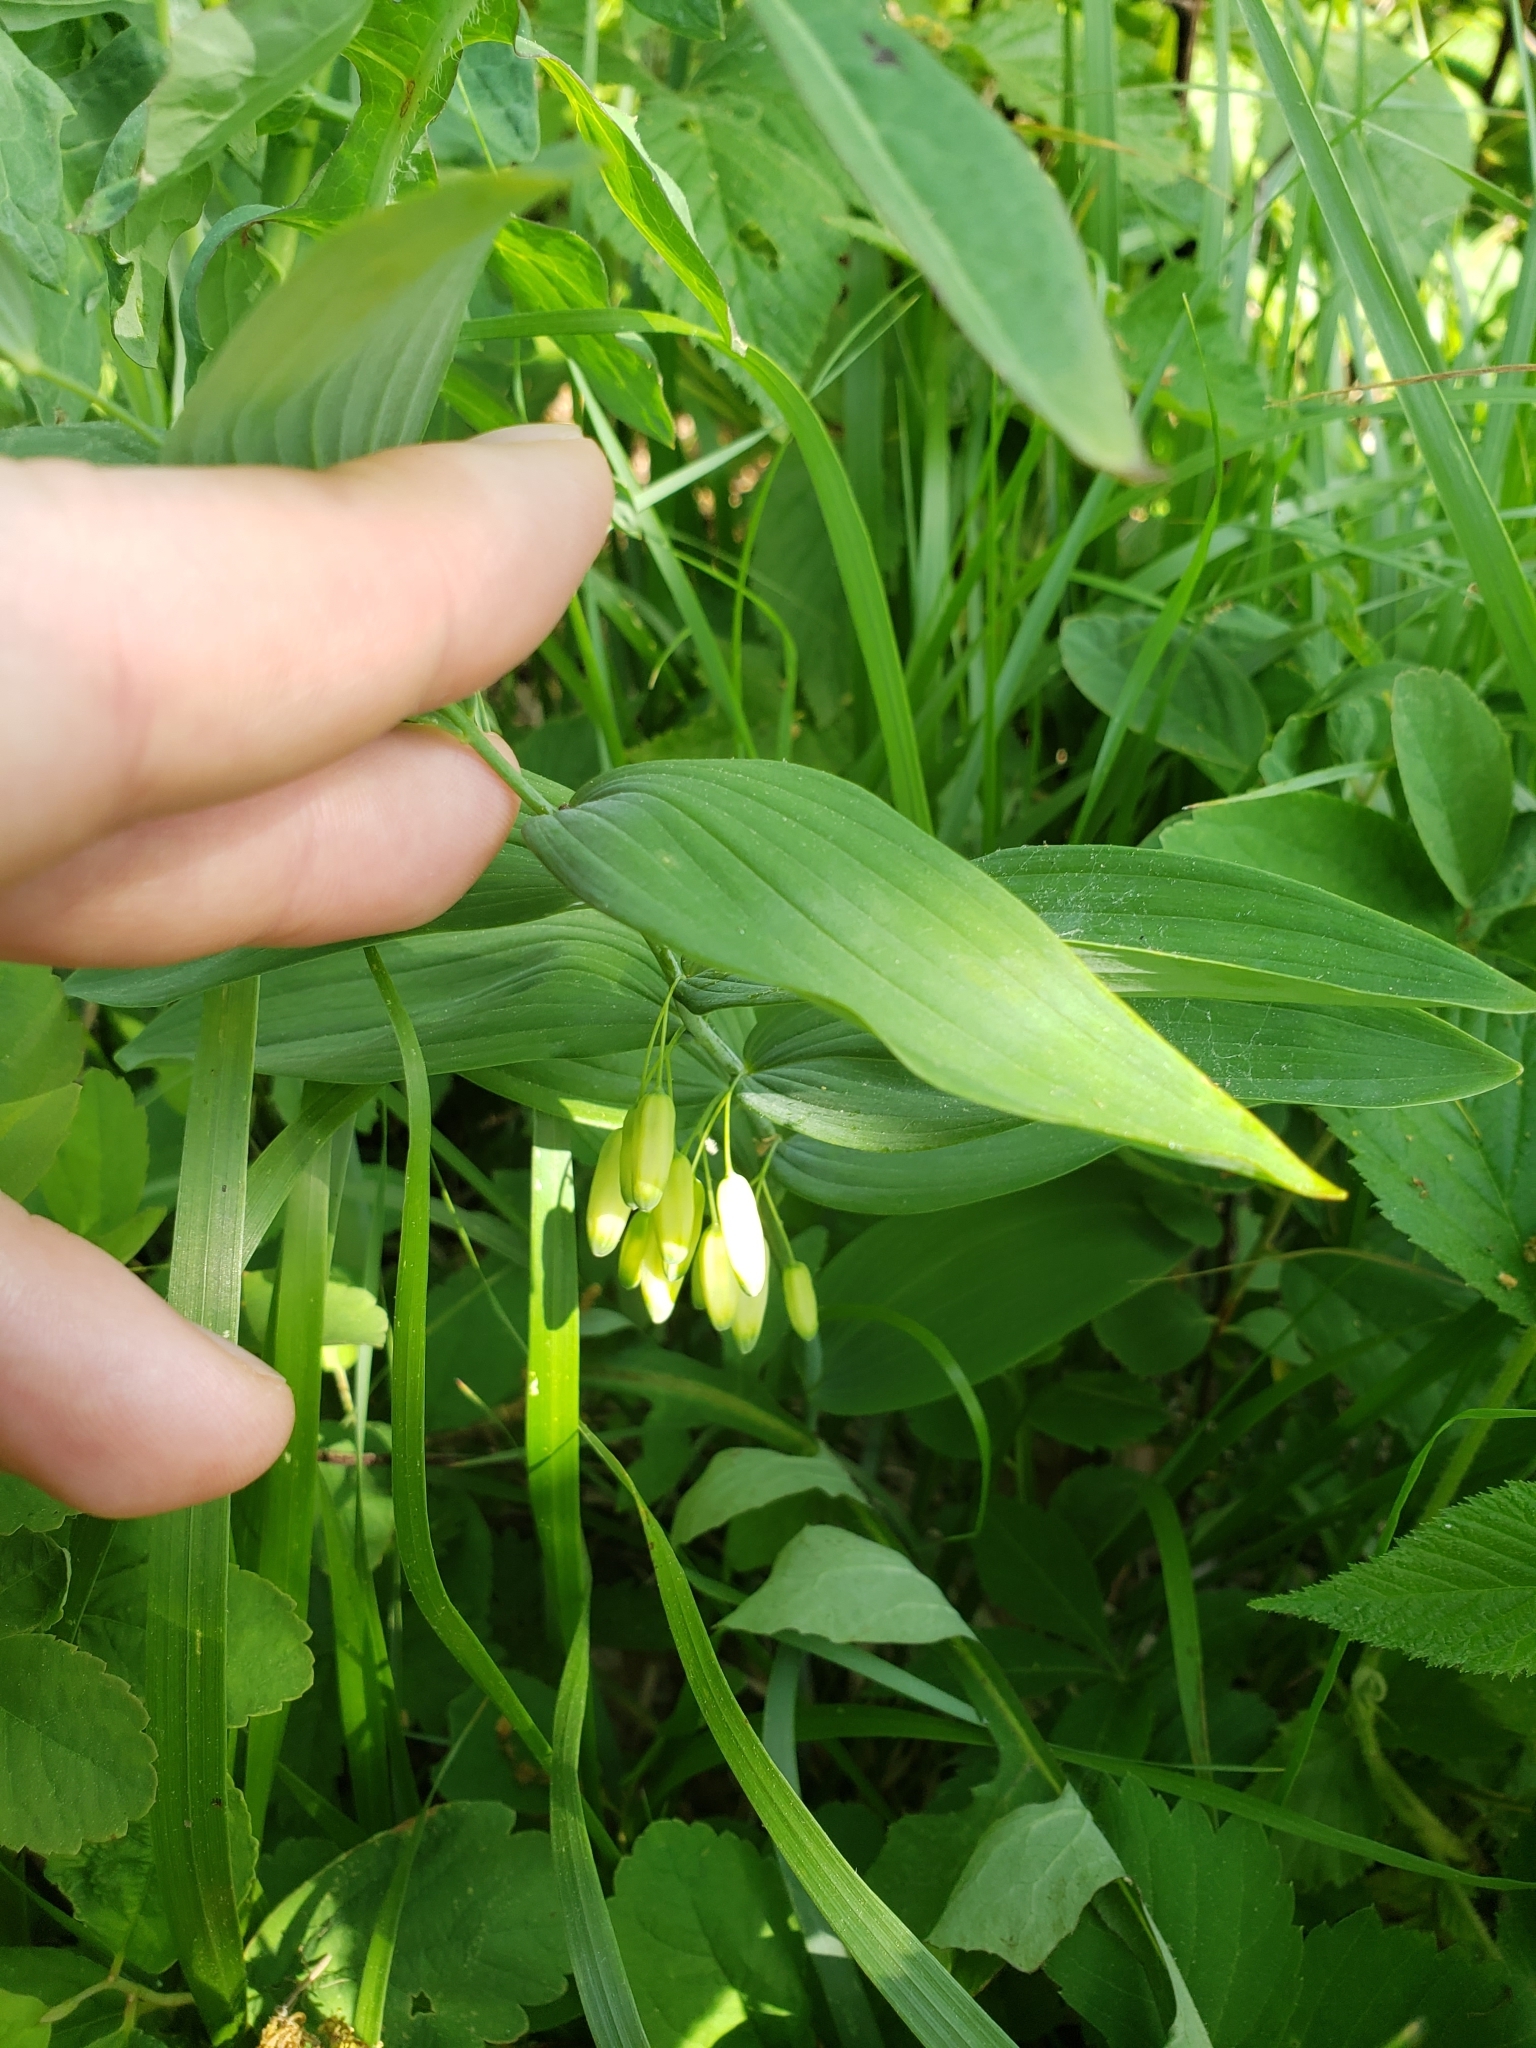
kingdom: Plantae
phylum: Tracheophyta
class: Liliopsida
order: Asparagales
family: Asparagaceae
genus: Polygonatum
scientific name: Polygonatum biflorum
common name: American solomon's-seal
